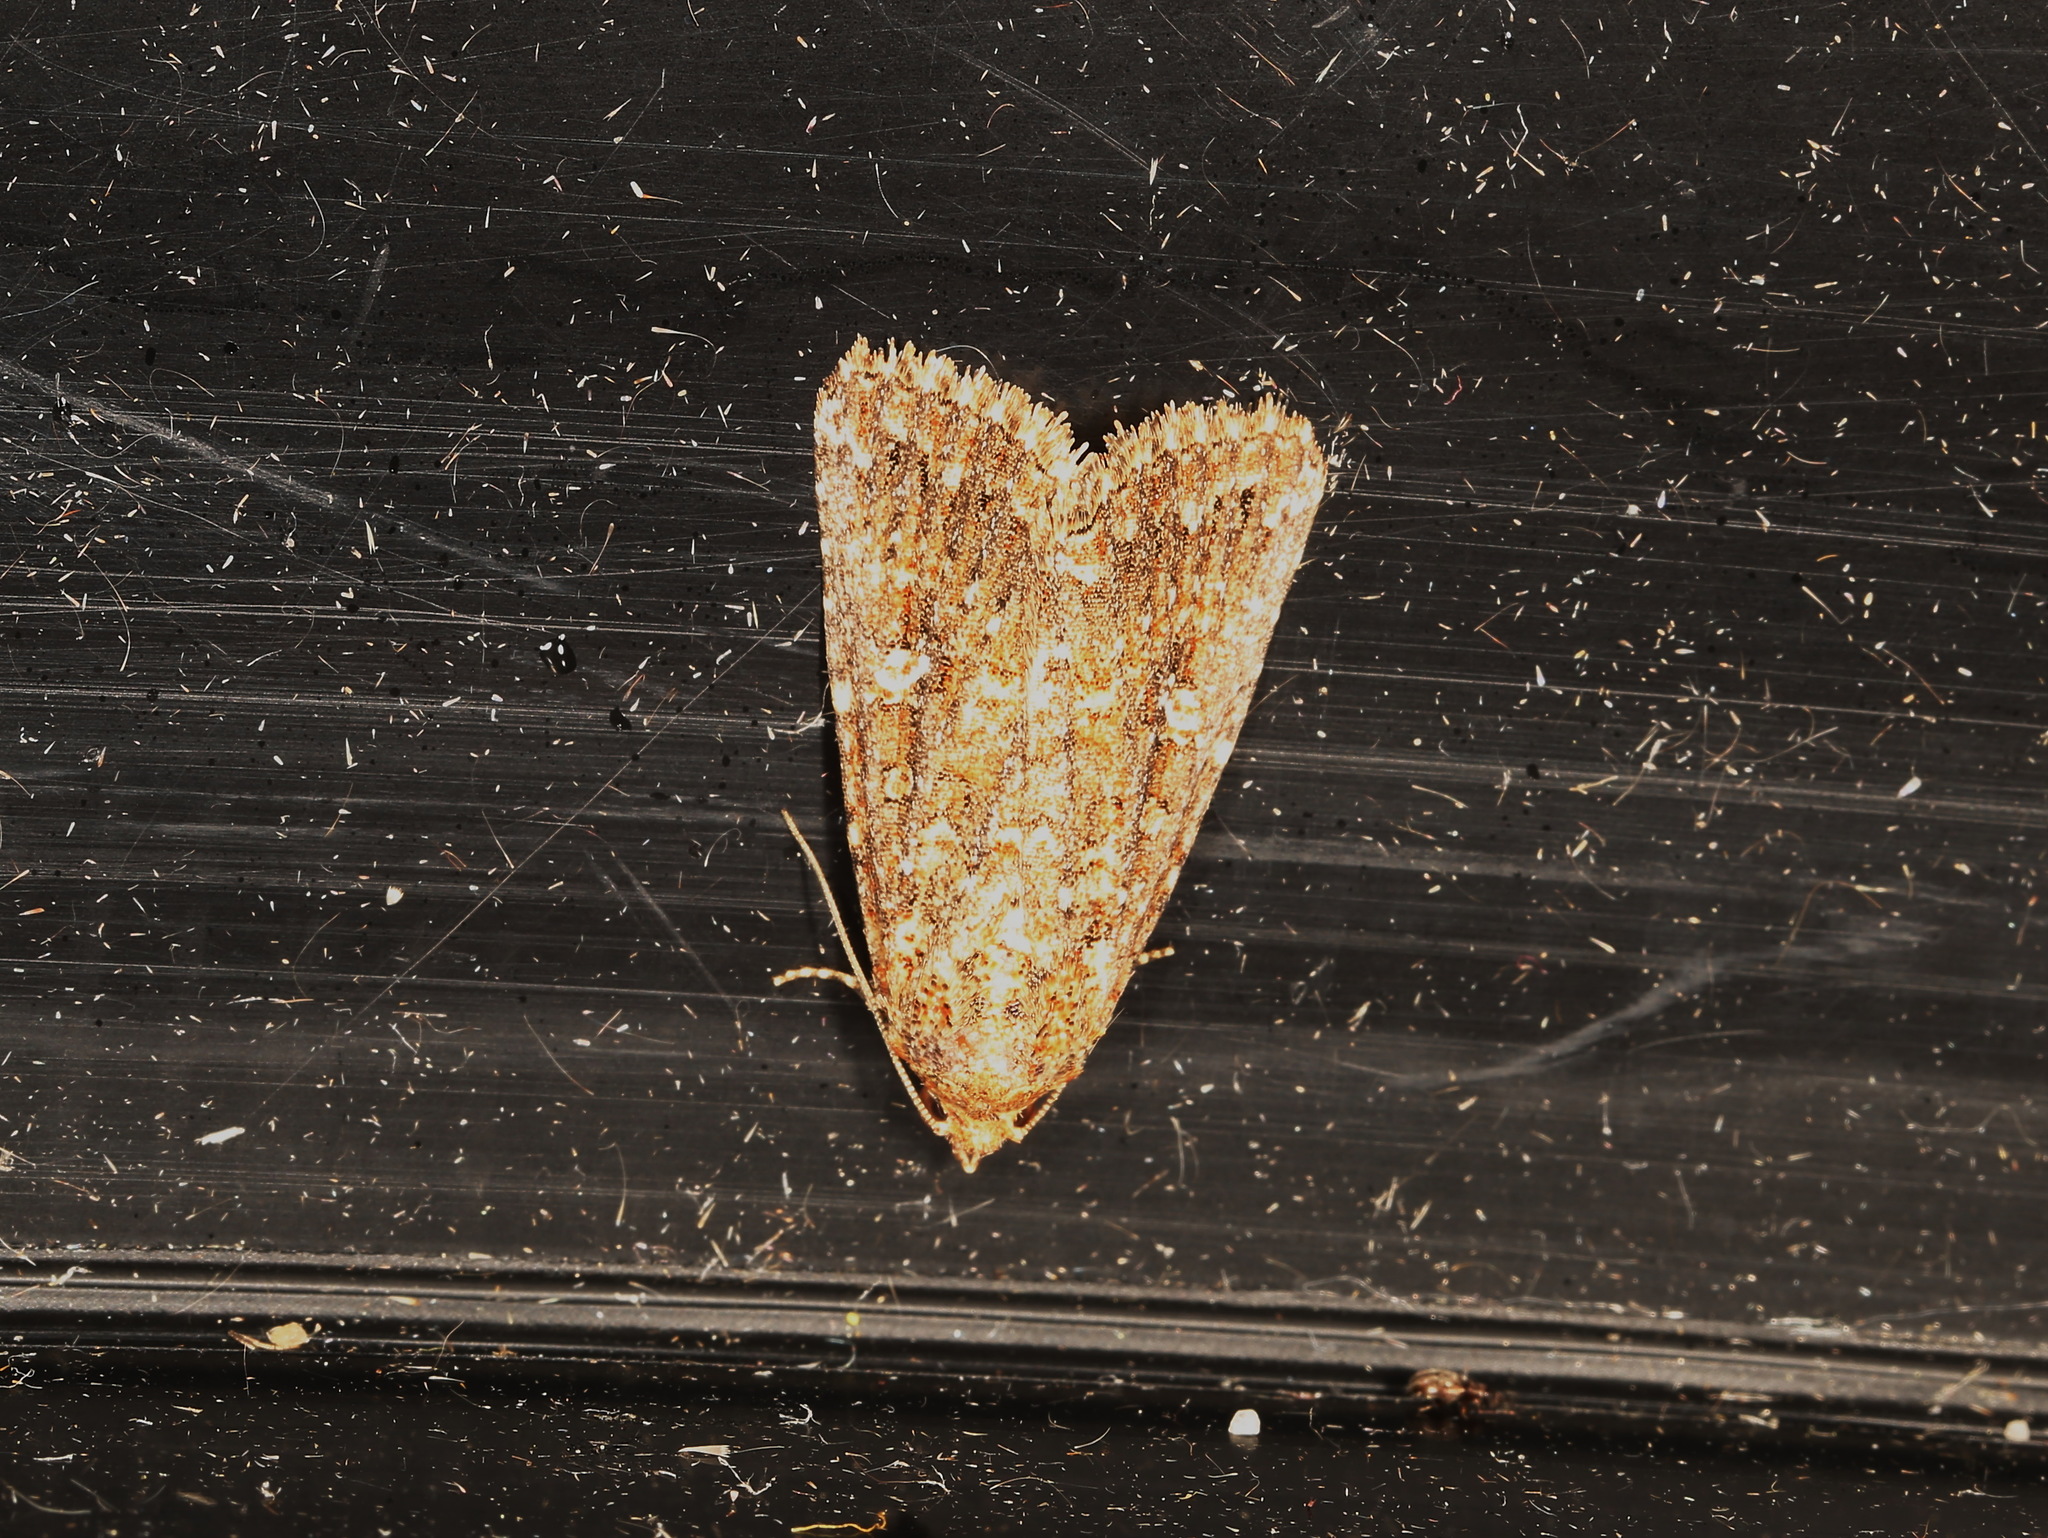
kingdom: Animalia
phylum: Arthropoda
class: Insecta
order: Lepidoptera
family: Noctuidae
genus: Hypoperigea
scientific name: Hypoperigea tonsa
